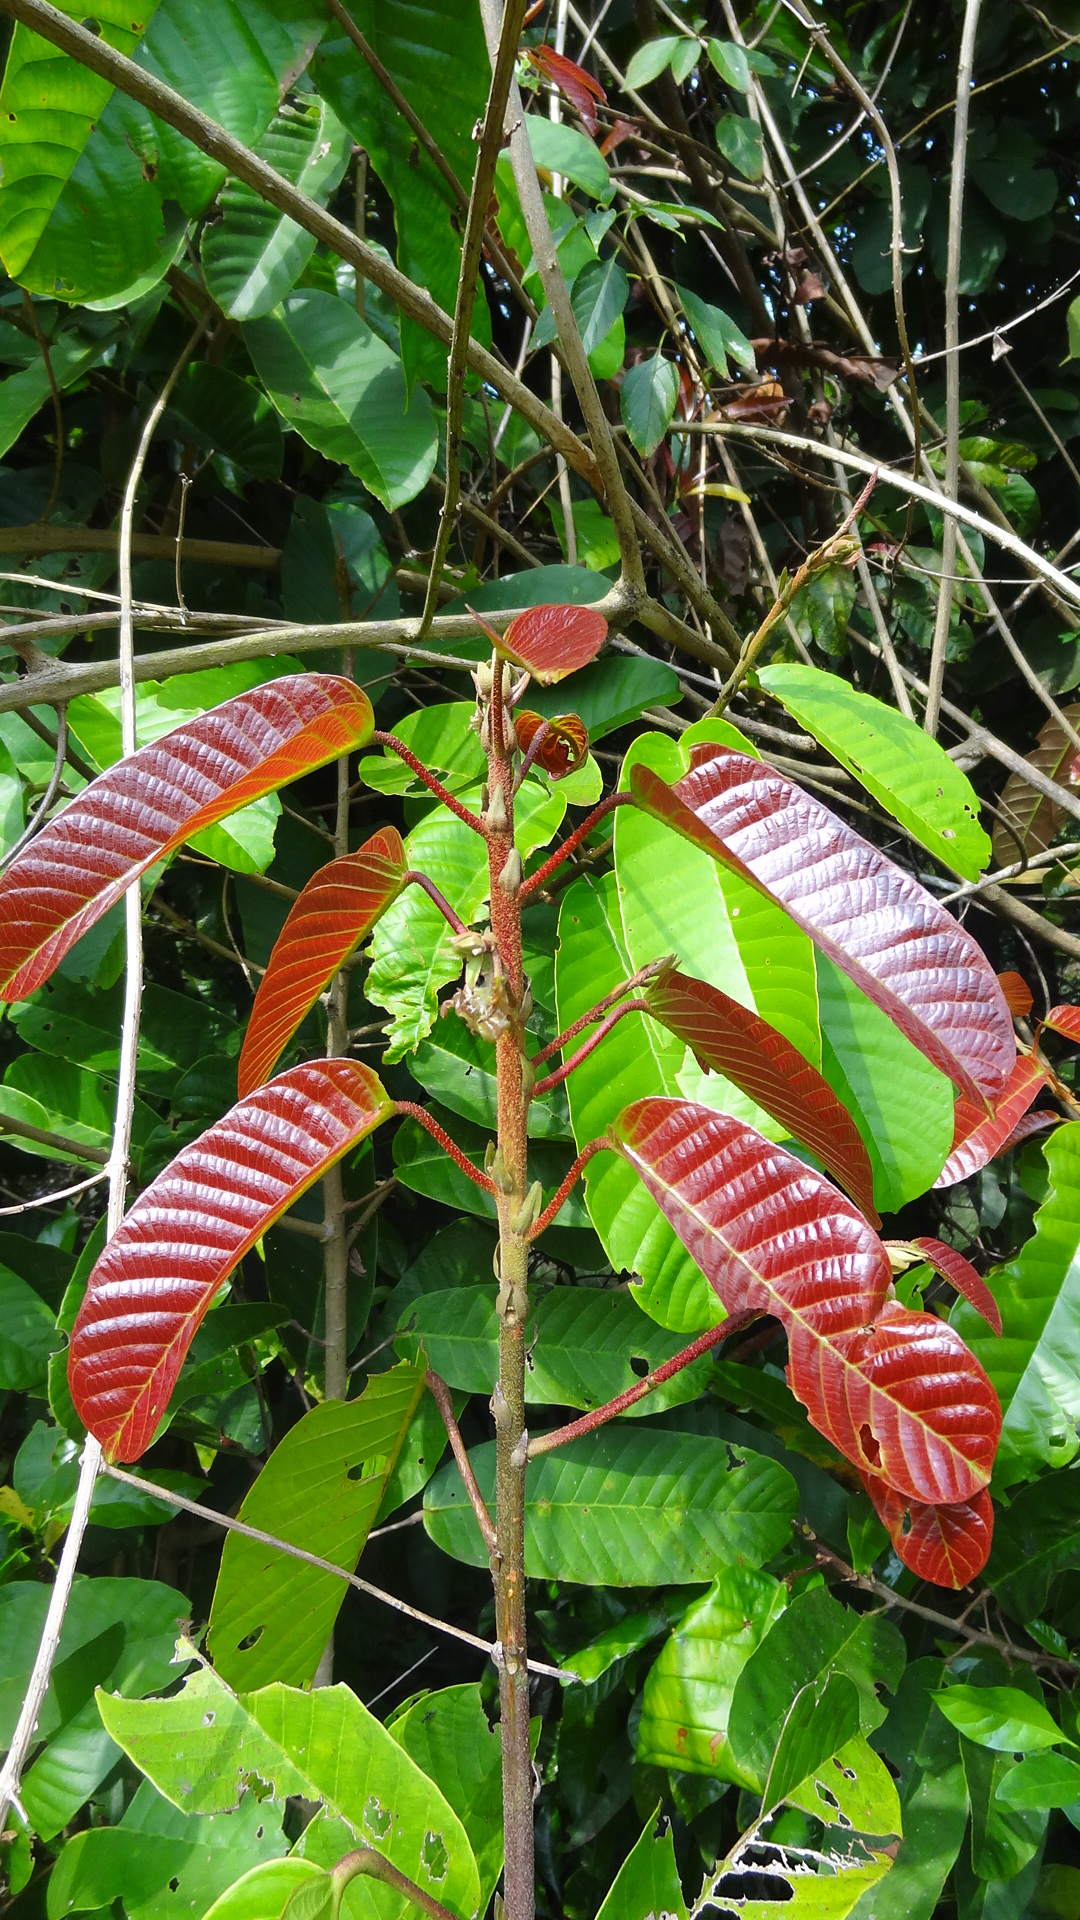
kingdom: Plantae
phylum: Tracheophyta
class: Magnoliopsida
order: Malvales
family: Dipterocarpaceae
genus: Vateria
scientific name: Vateria indica
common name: White dammar
